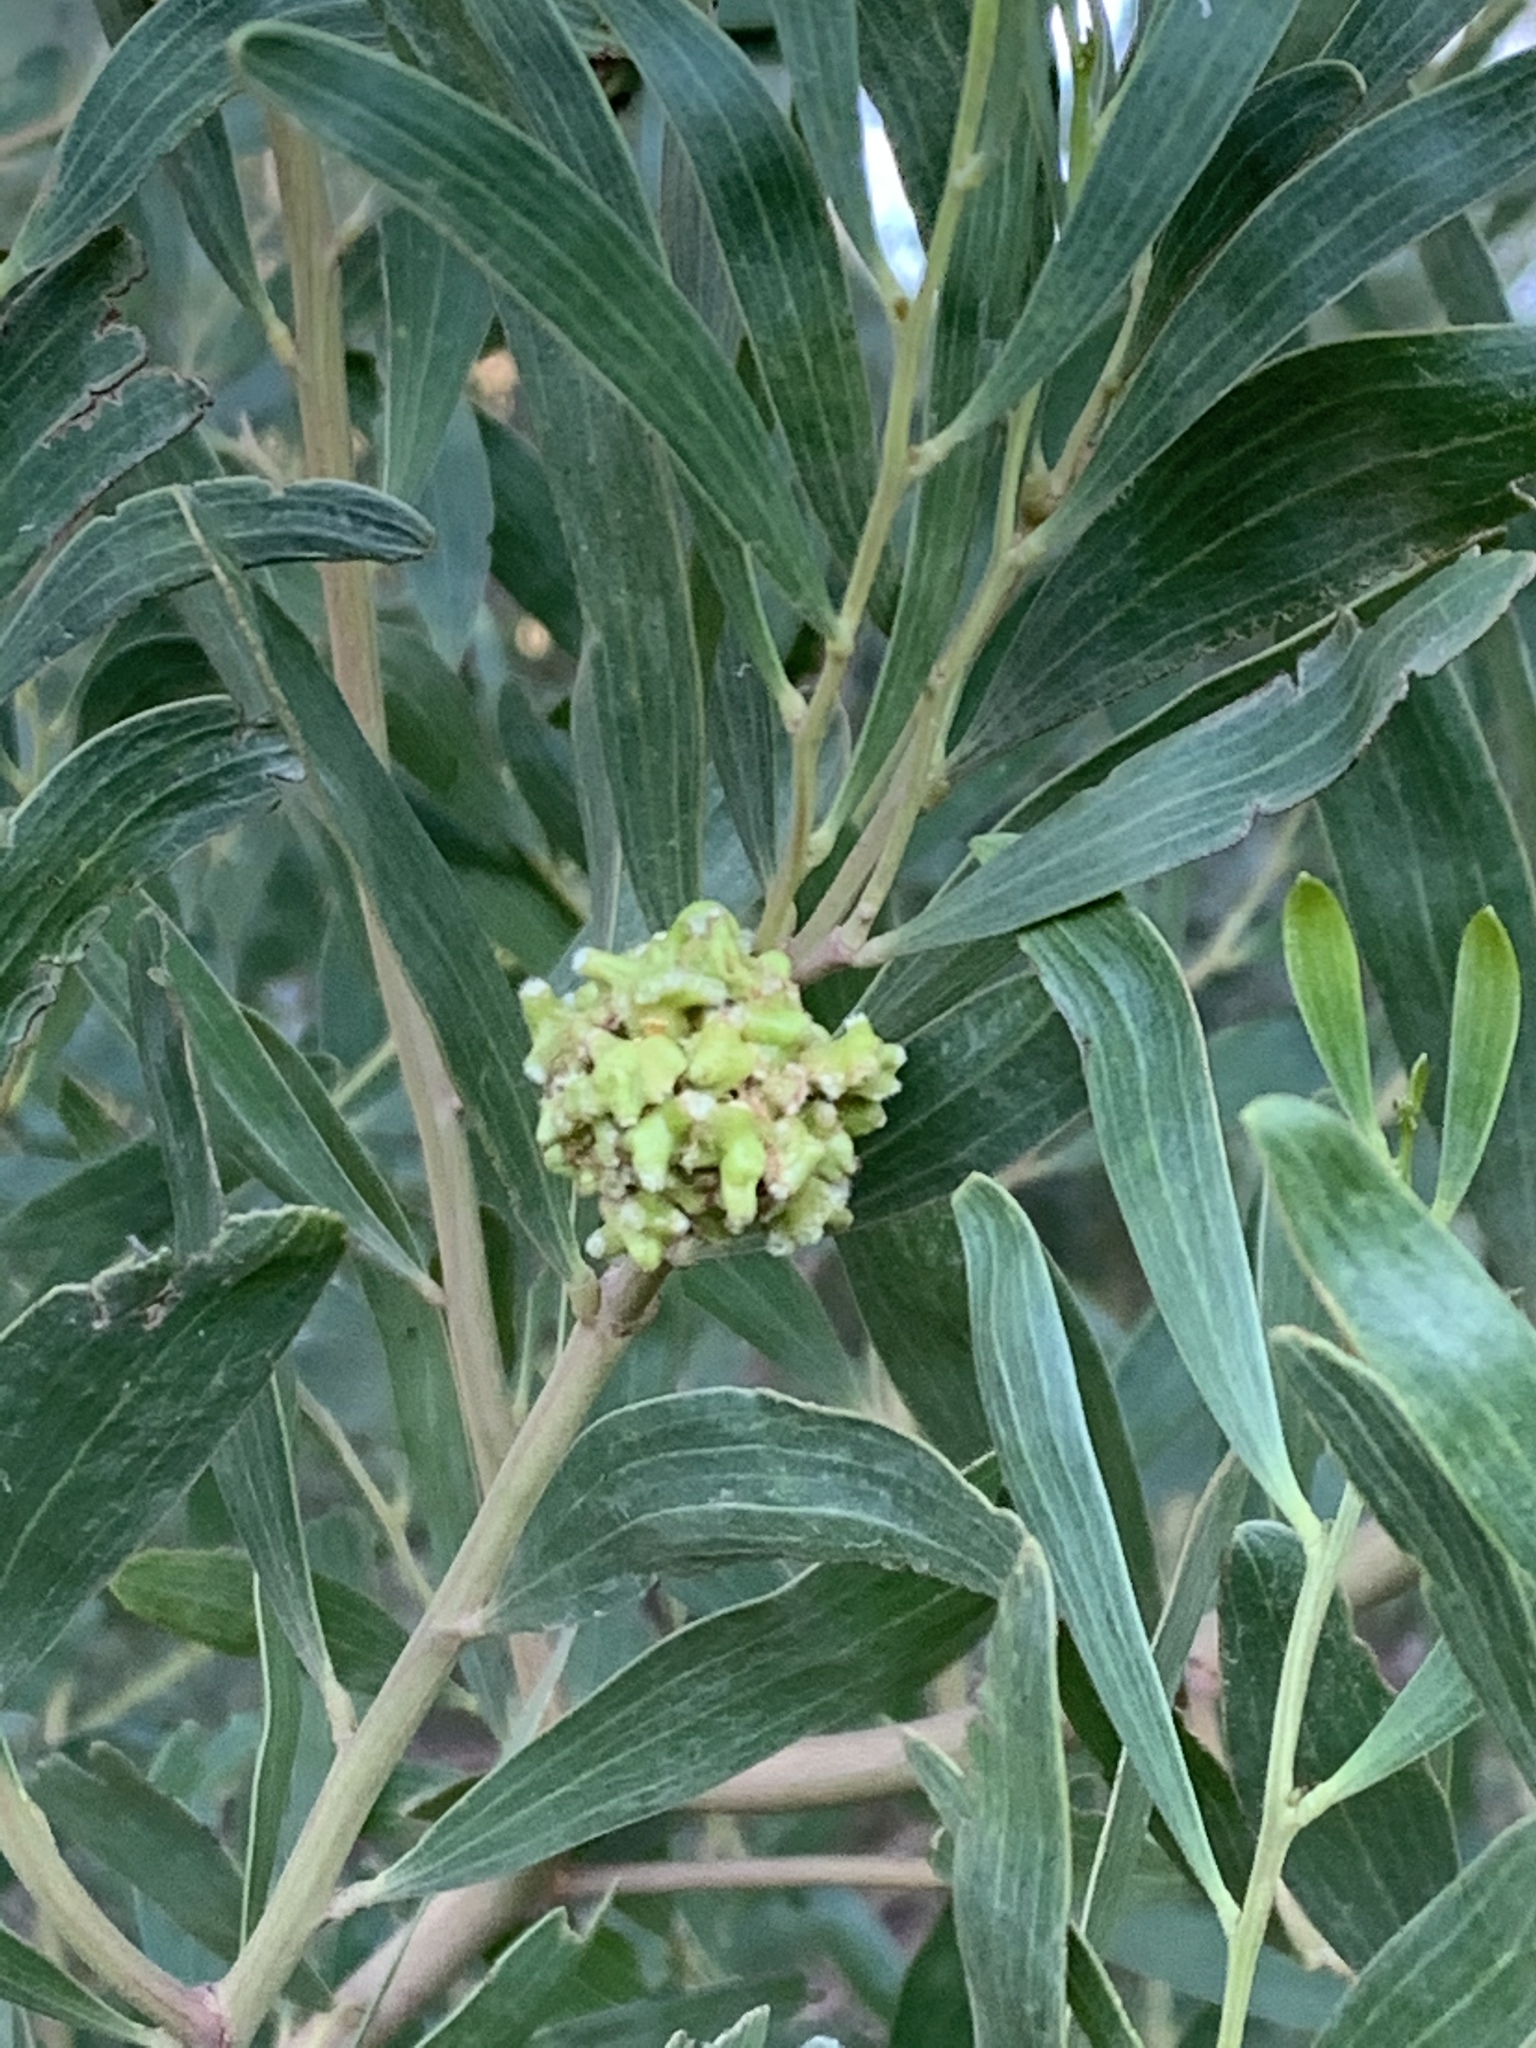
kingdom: Plantae
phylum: Tracheophyta
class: Magnoliopsida
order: Fabales
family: Fabaceae
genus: Acacia
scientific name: Acacia cyclops
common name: Coastal wattle
